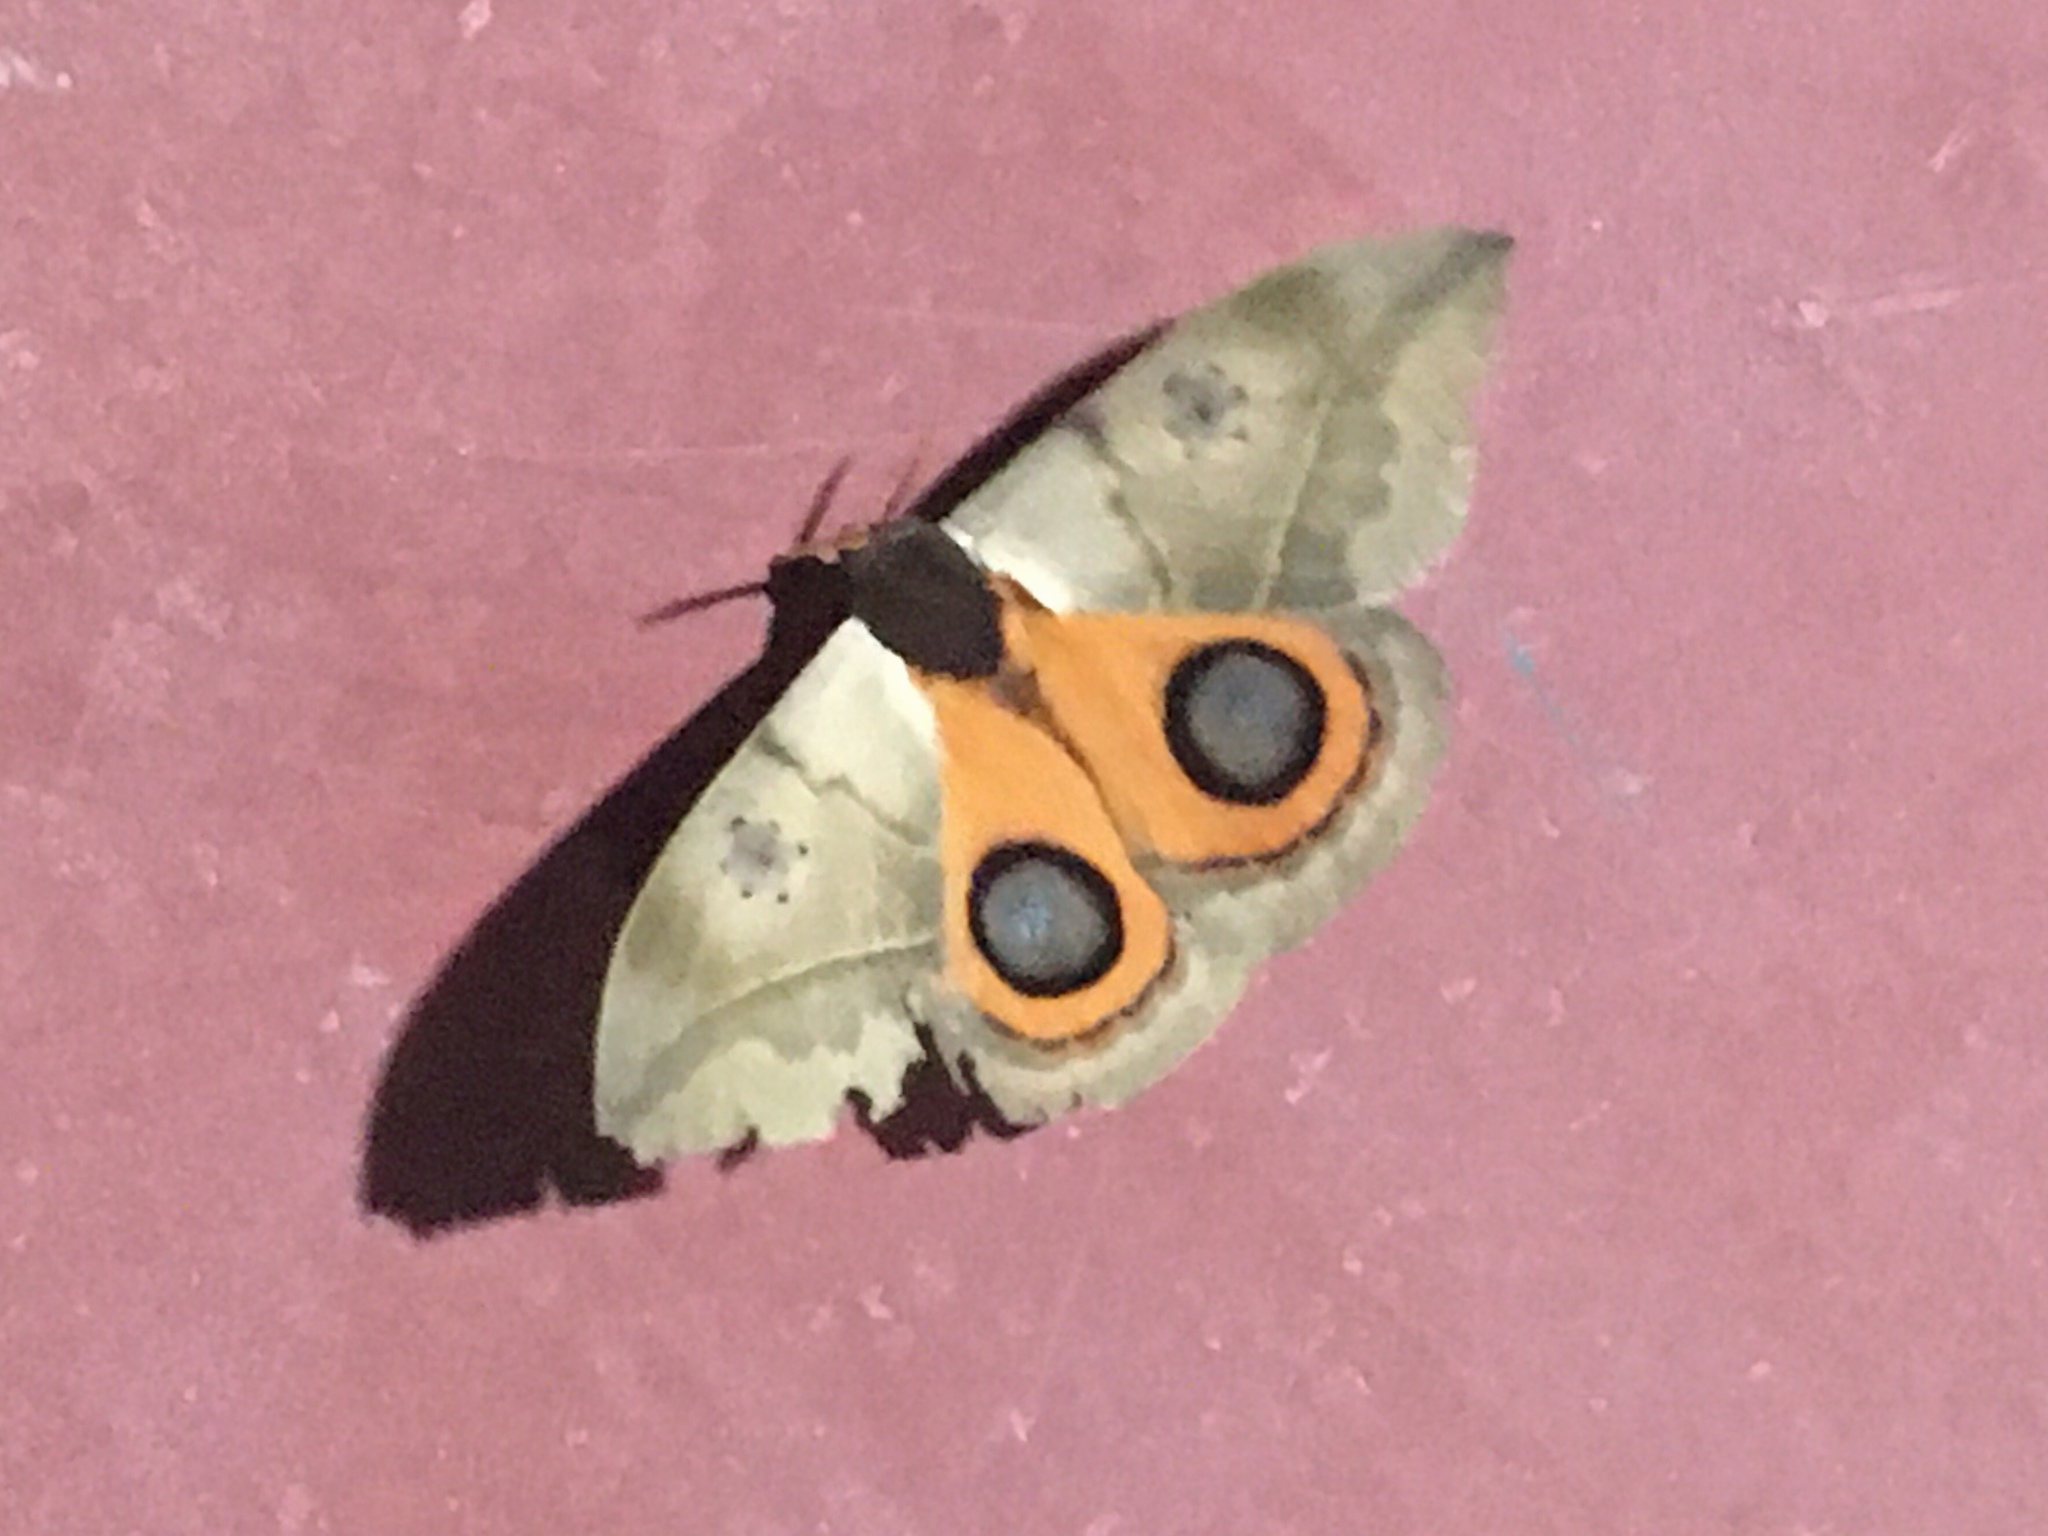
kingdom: Animalia
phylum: Arthropoda
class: Insecta
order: Lepidoptera
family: Saturniidae
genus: Automeris
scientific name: Automeris coresus
